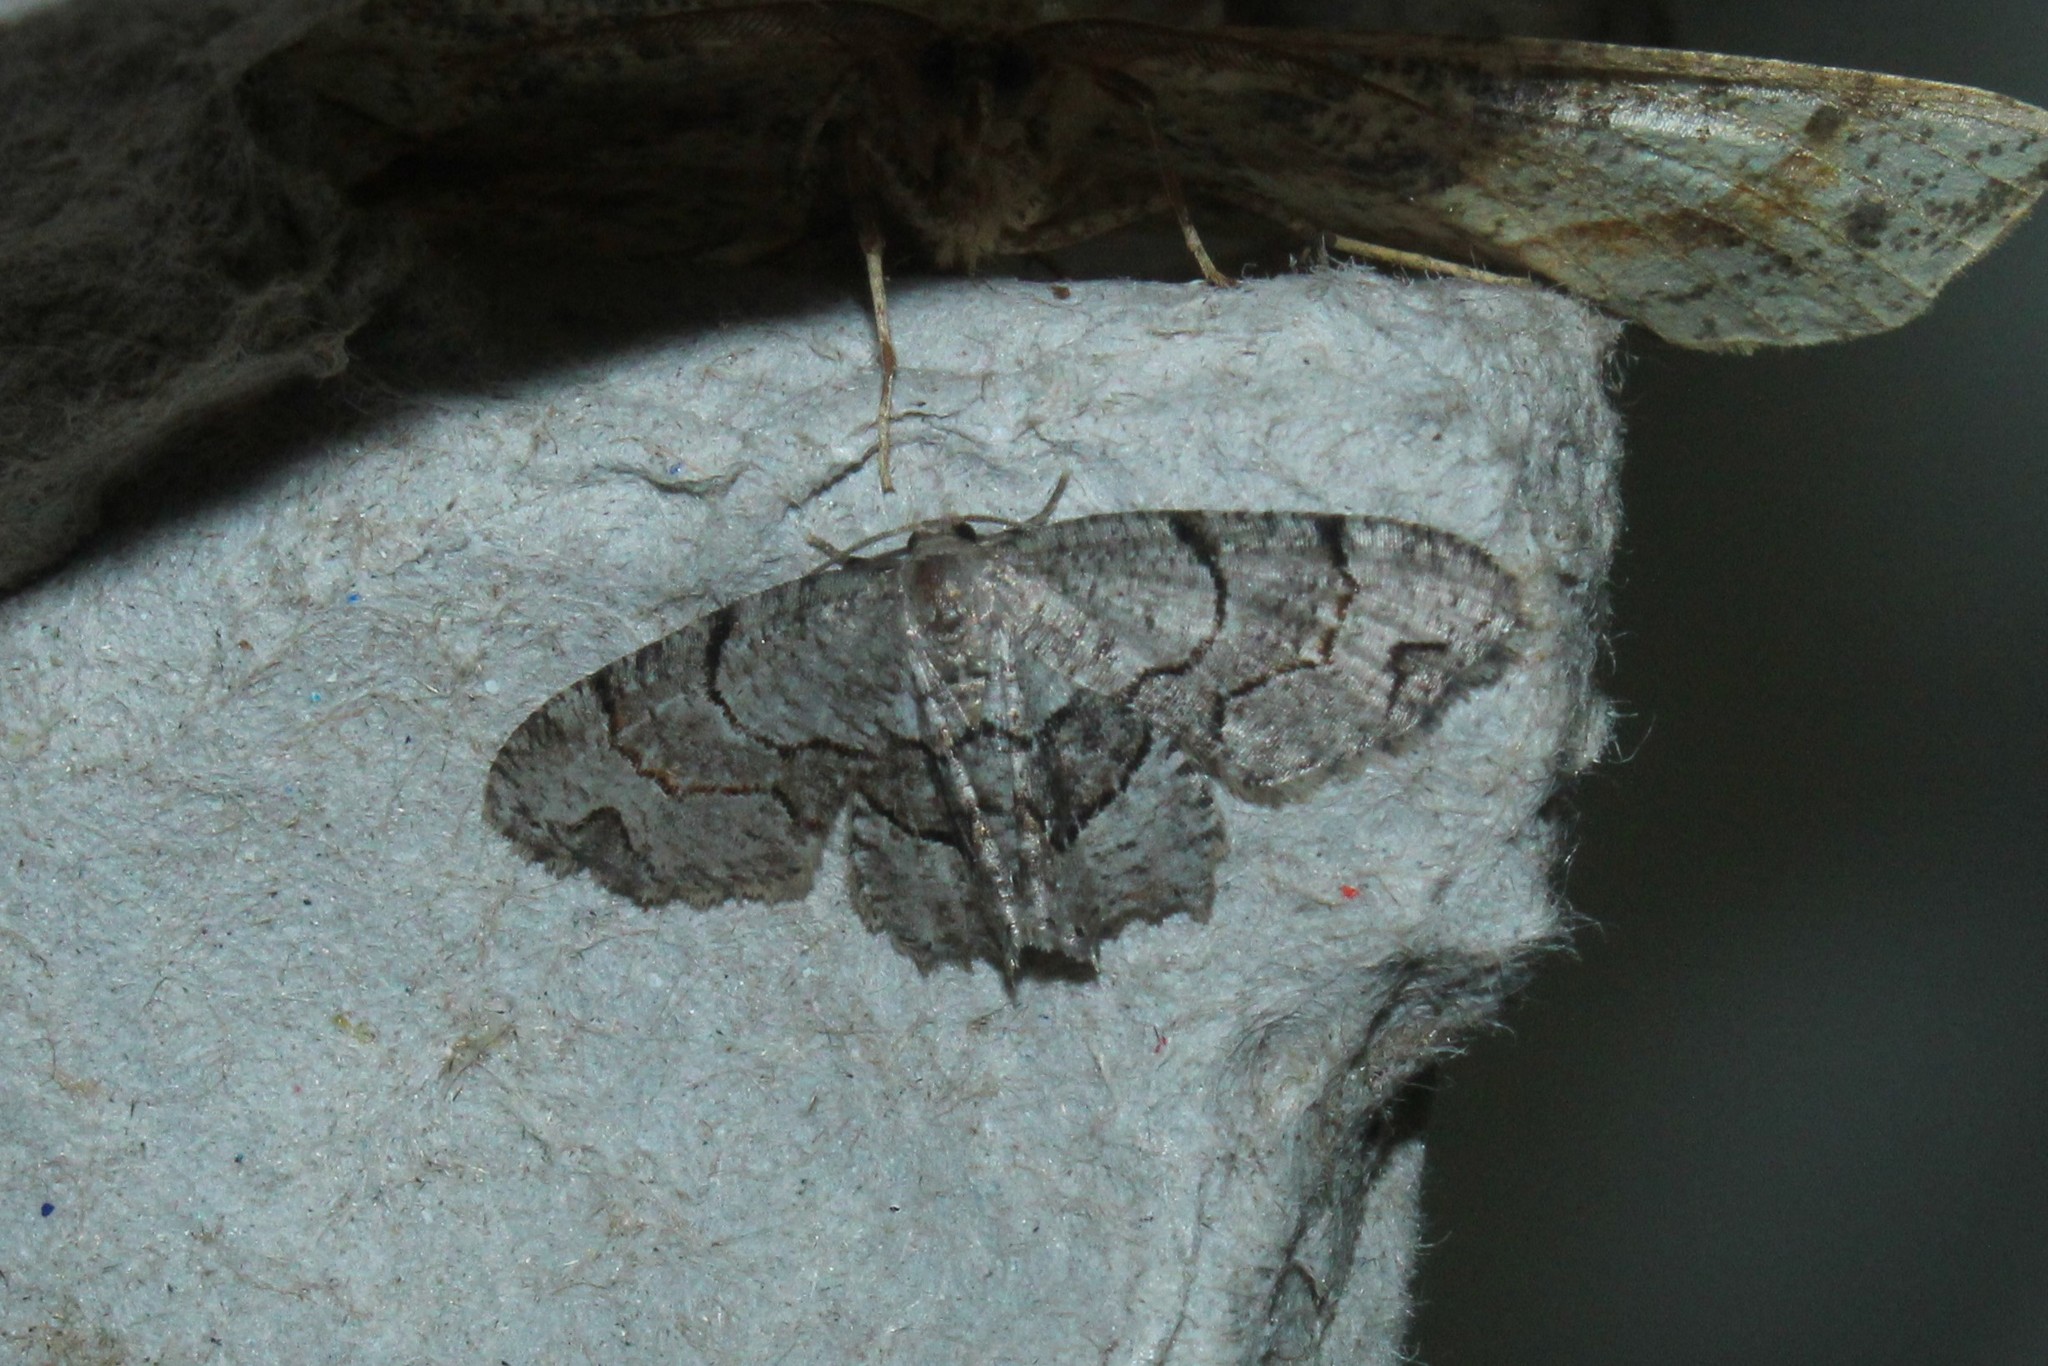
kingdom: Animalia
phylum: Arthropoda
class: Insecta
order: Lepidoptera
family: Uraniidae
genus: Epiplema
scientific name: Epiplema Callizzia amorata
